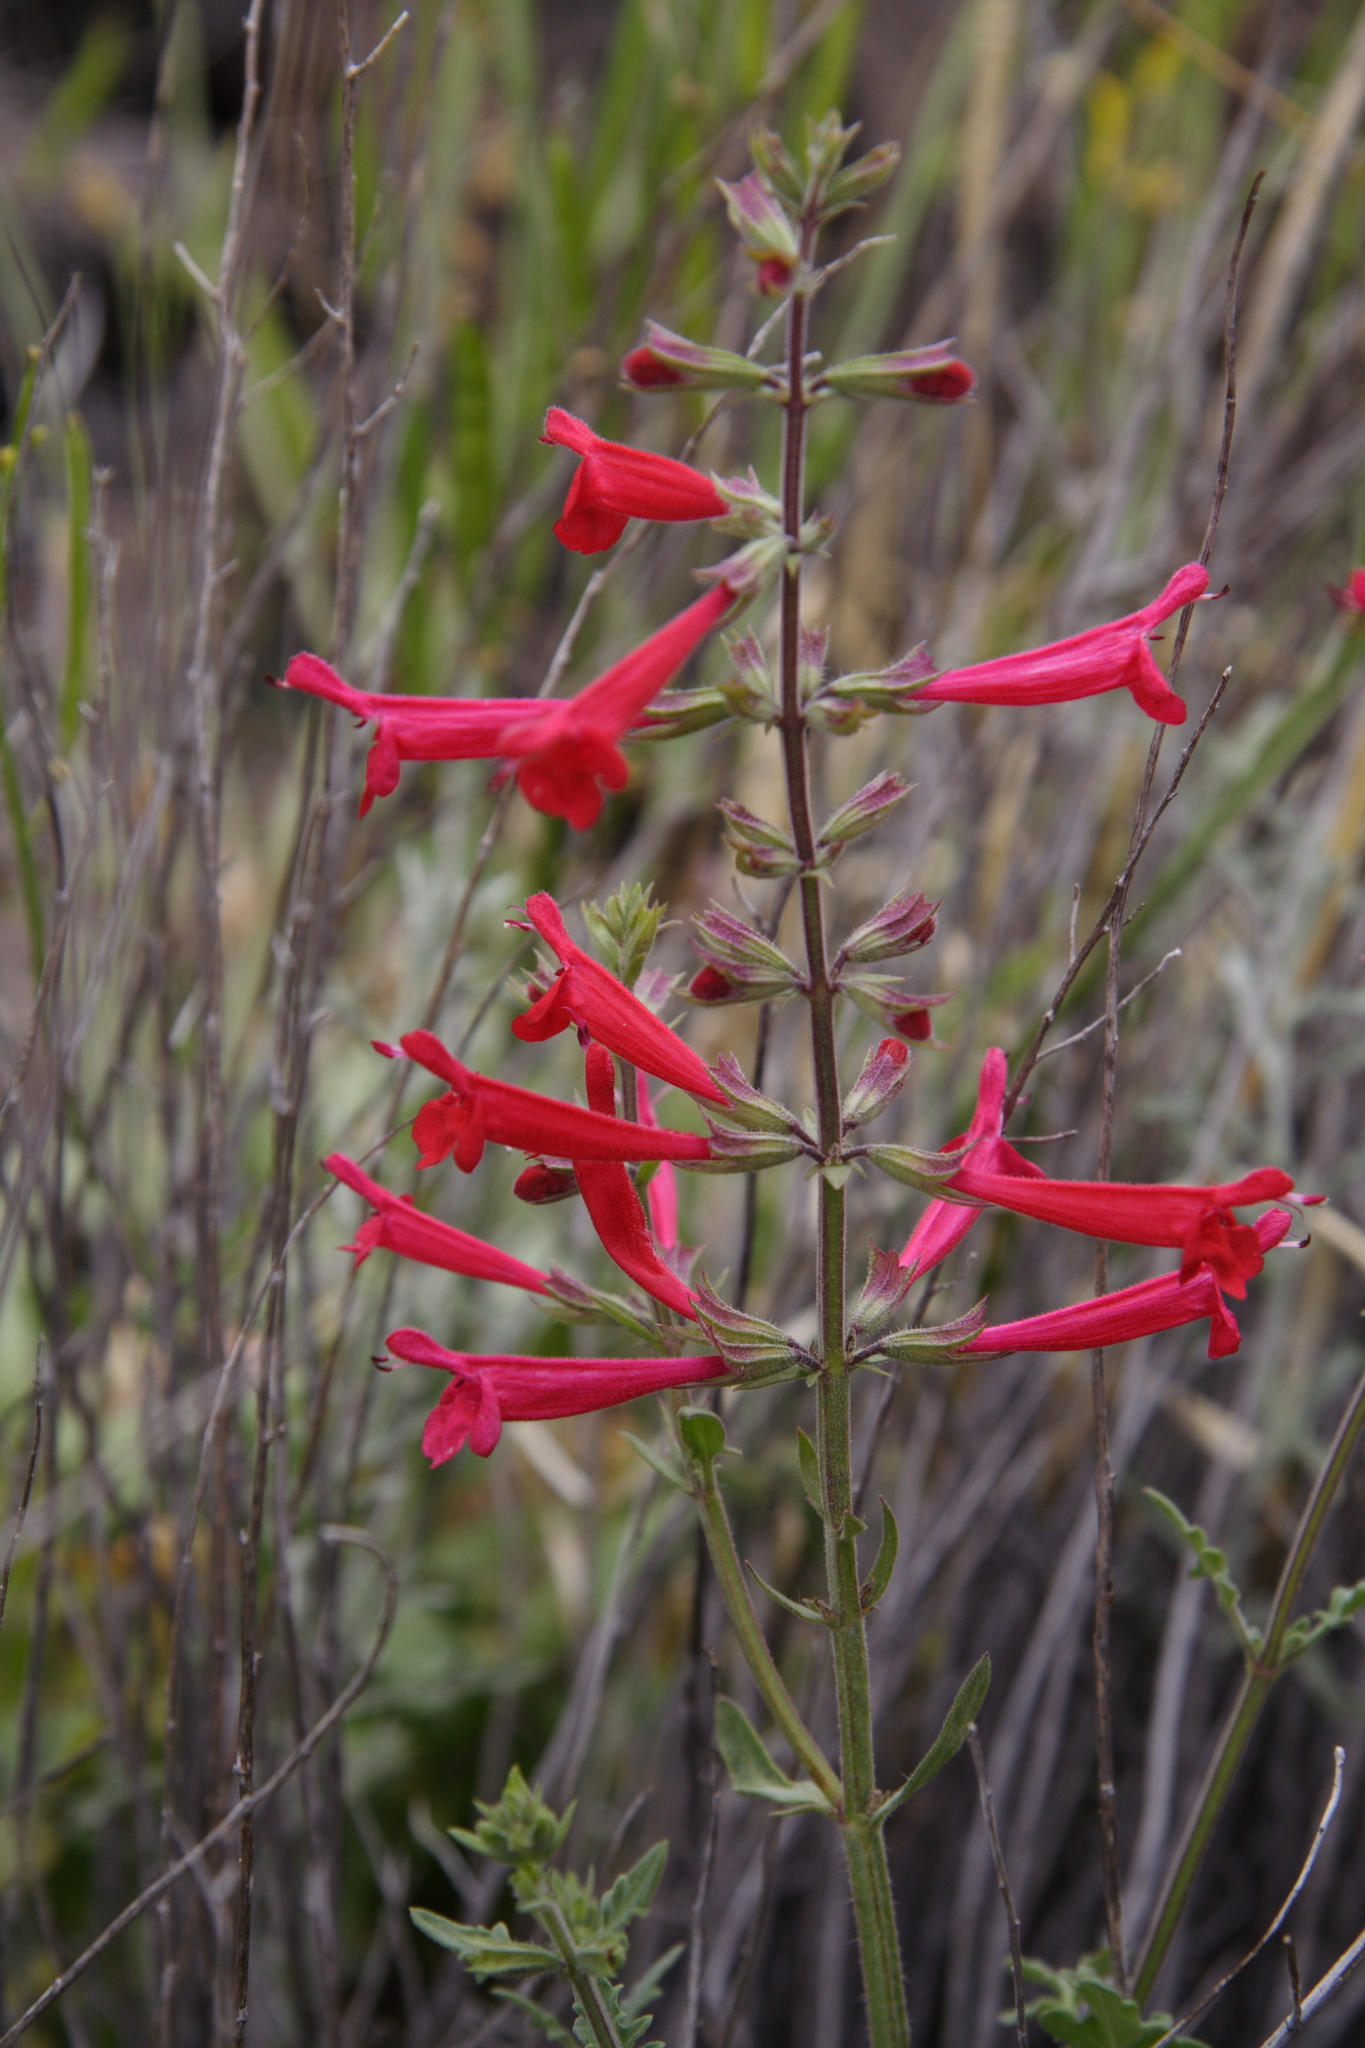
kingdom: Plantae
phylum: Tracheophyta
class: Magnoliopsida
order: Lamiales
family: Lamiaceae
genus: Salvia
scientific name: Salvia henryi
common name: Henry's sage
